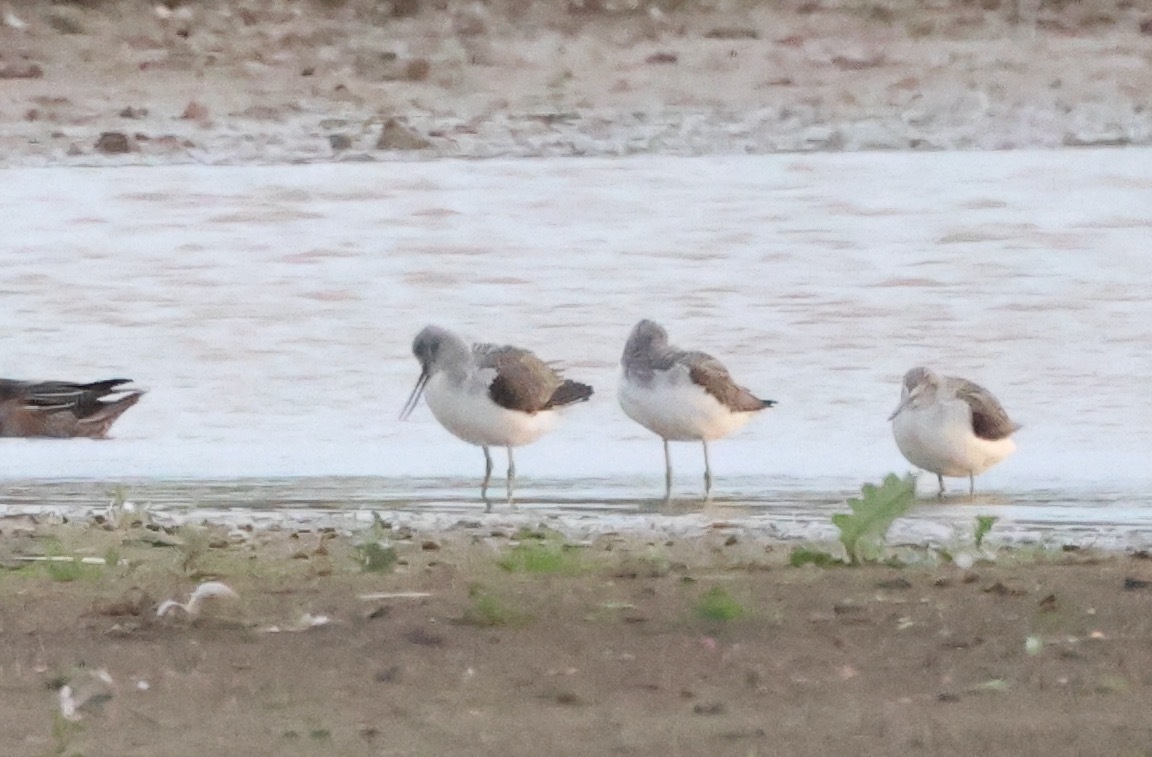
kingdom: Animalia
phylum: Chordata
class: Aves
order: Charadriiformes
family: Scolopacidae
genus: Tringa
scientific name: Tringa nebularia
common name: Common greenshank
